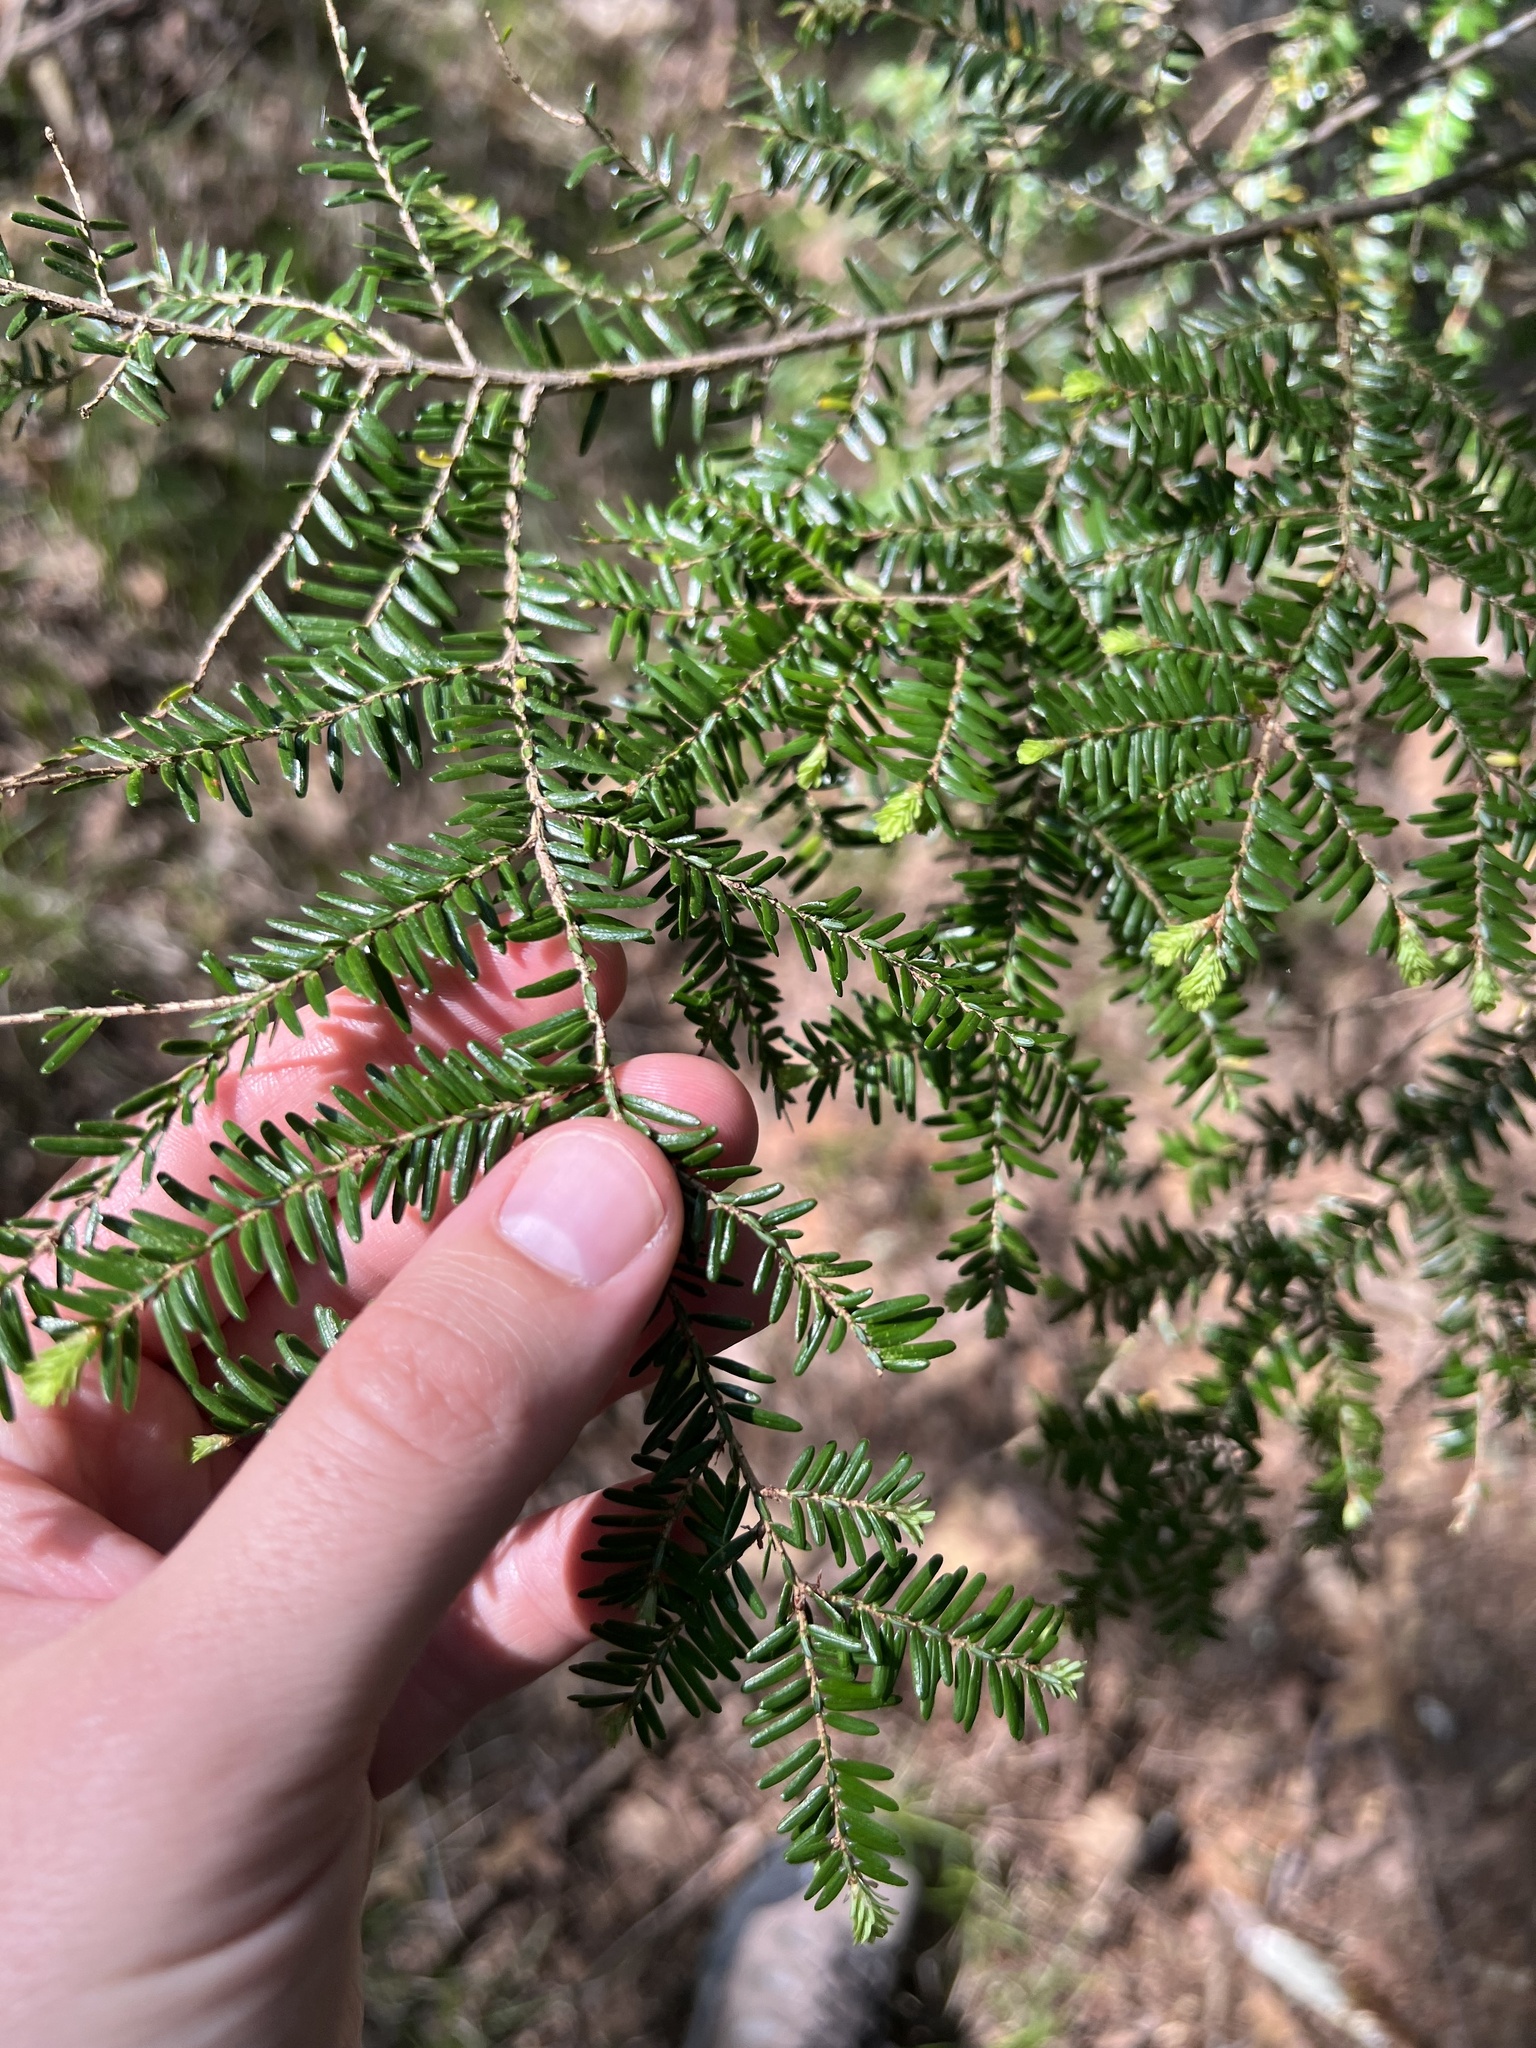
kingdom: Plantae
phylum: Tracheophyta
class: Pinopsida
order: Pinales
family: Pinaceae
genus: Tsuga
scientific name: Tsuga canadensis
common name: Eastern hemlock
